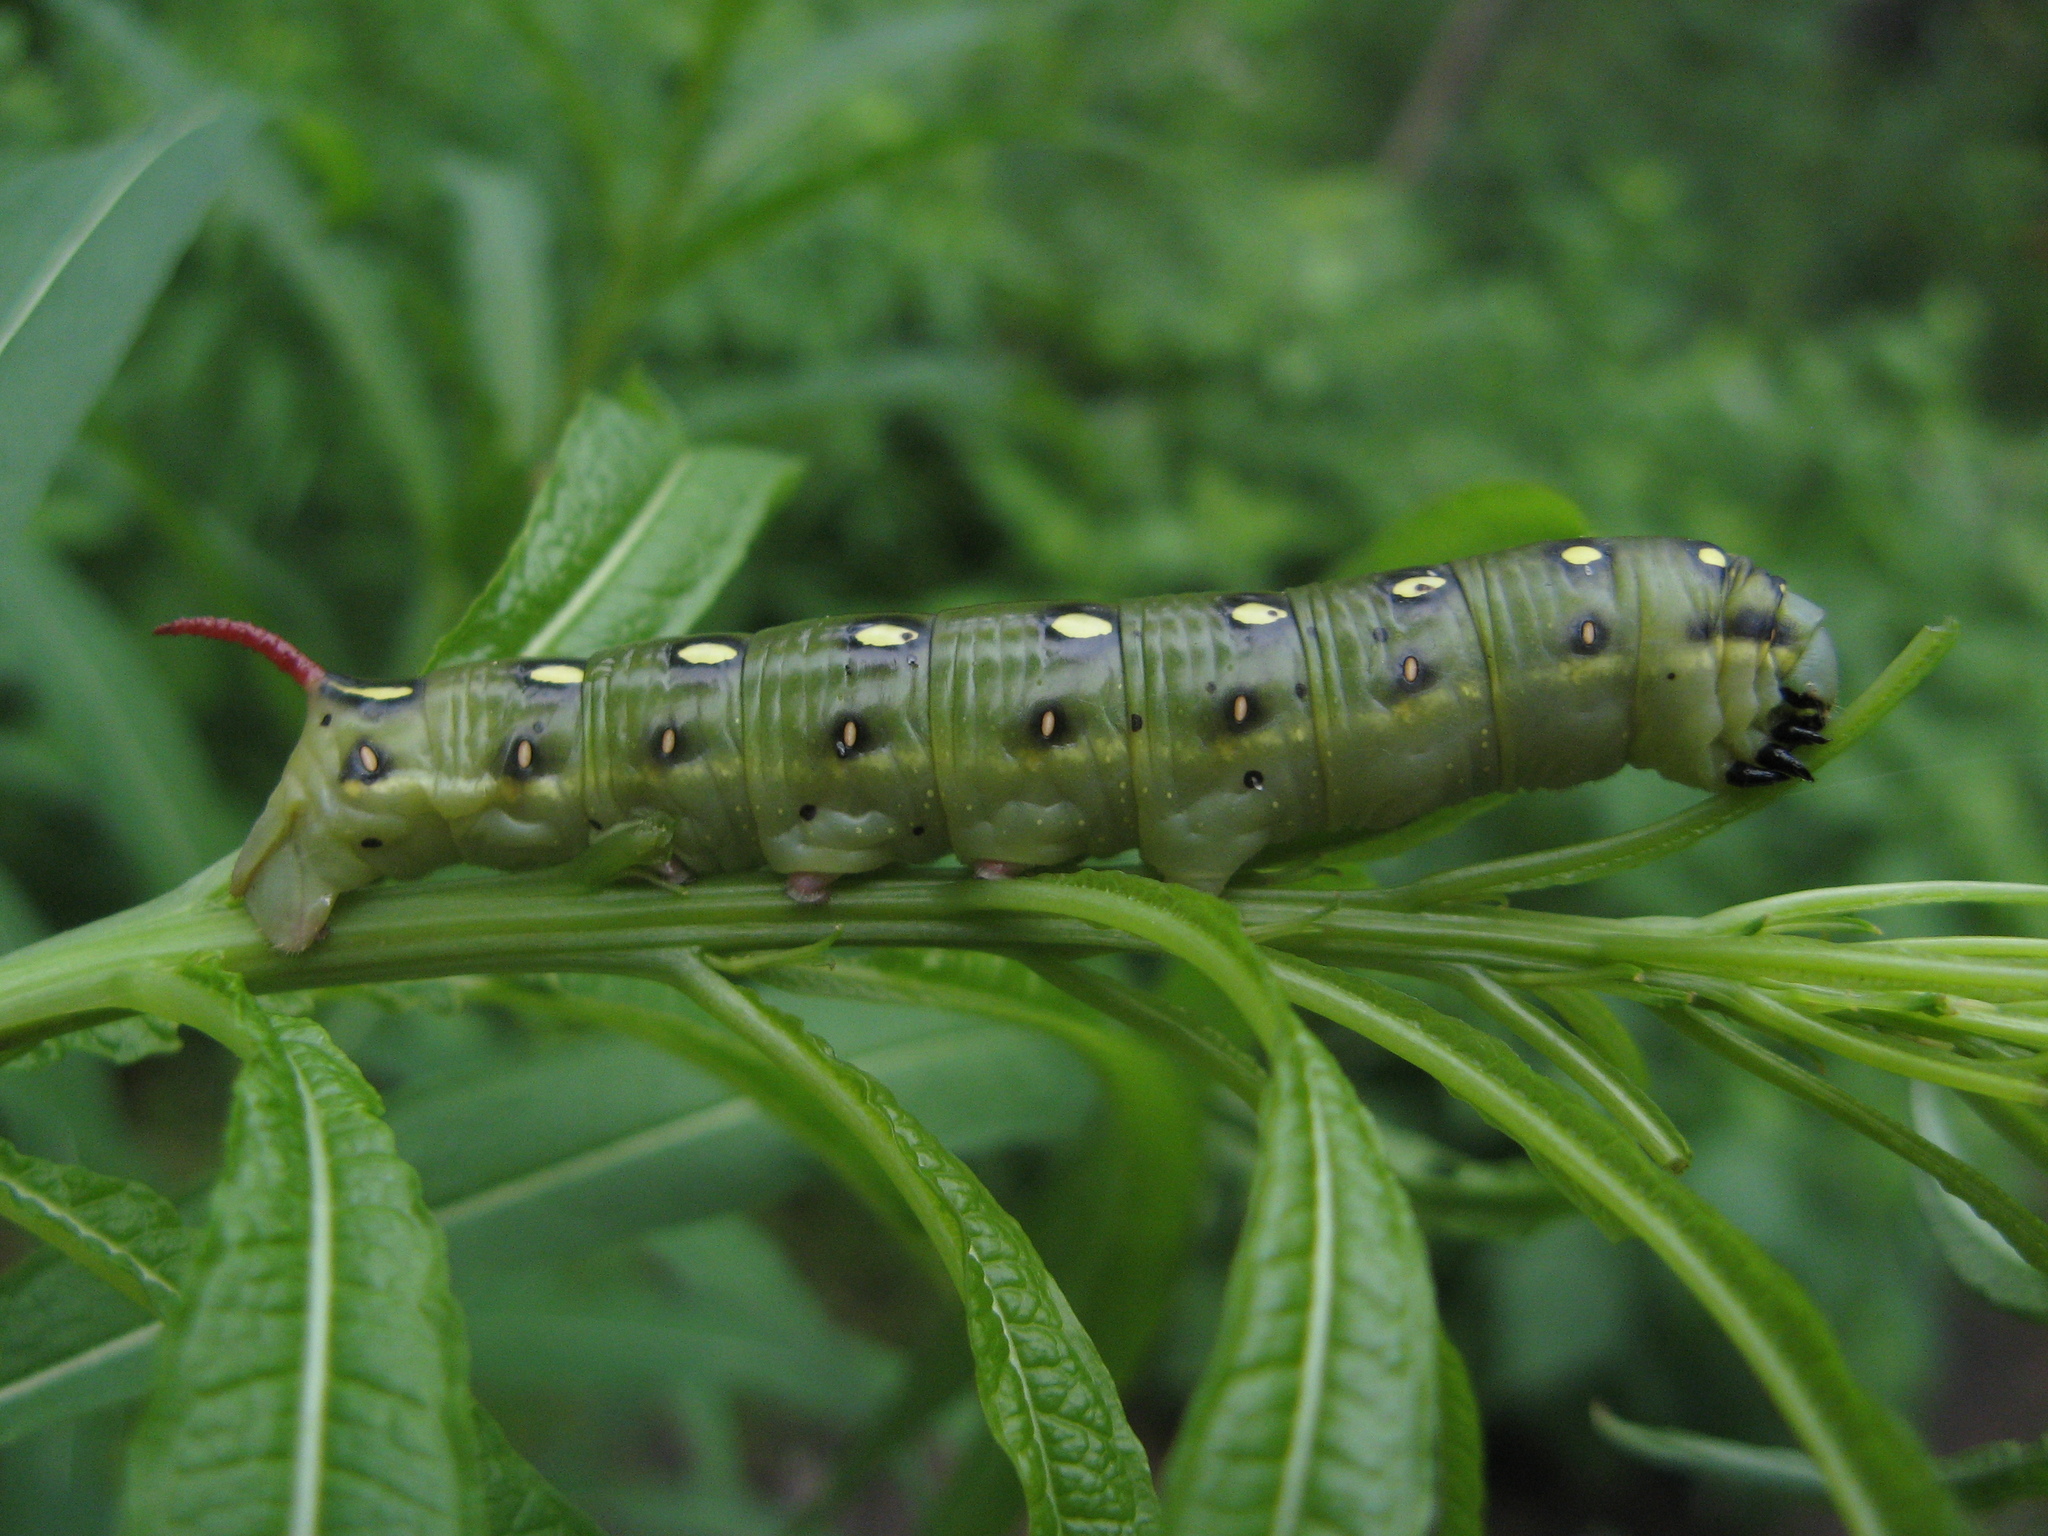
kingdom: Animalia
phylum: Arthropoda
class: Insecta
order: Lepidoptera
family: Sphingidae
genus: Hyles
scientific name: Hyles gallii
